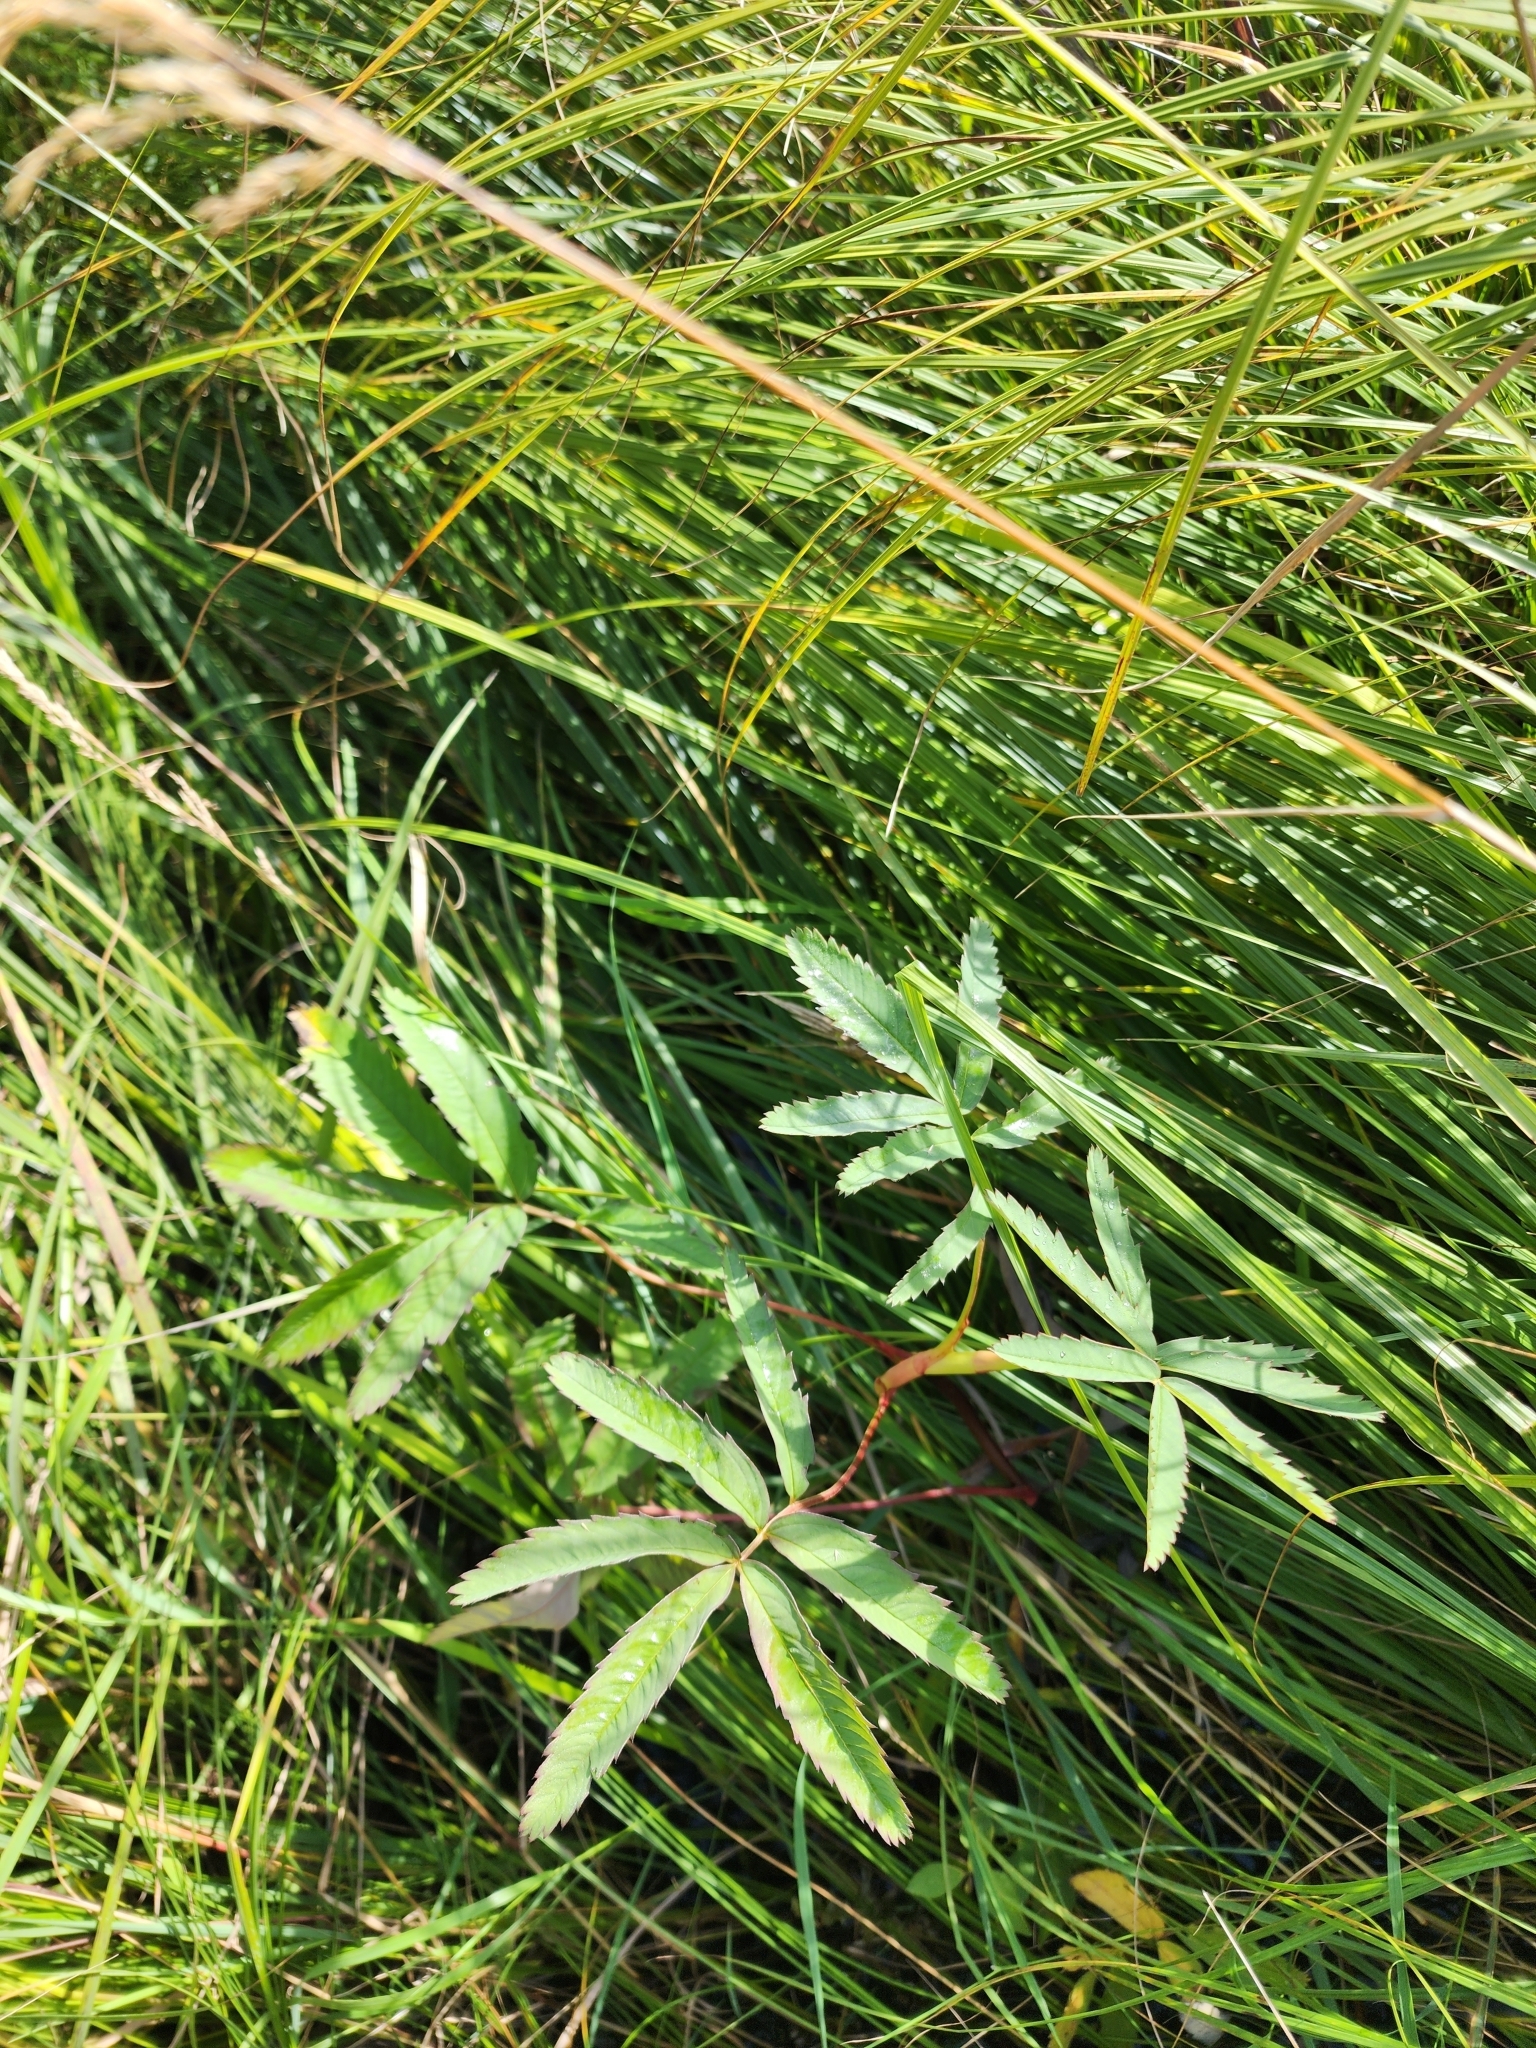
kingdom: Plantae
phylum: Tracheophyta
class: Magnoliopsida
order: Rosales
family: Rosaceae
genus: Comarum
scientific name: Comarum palustre
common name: Marsh cinquefoil
